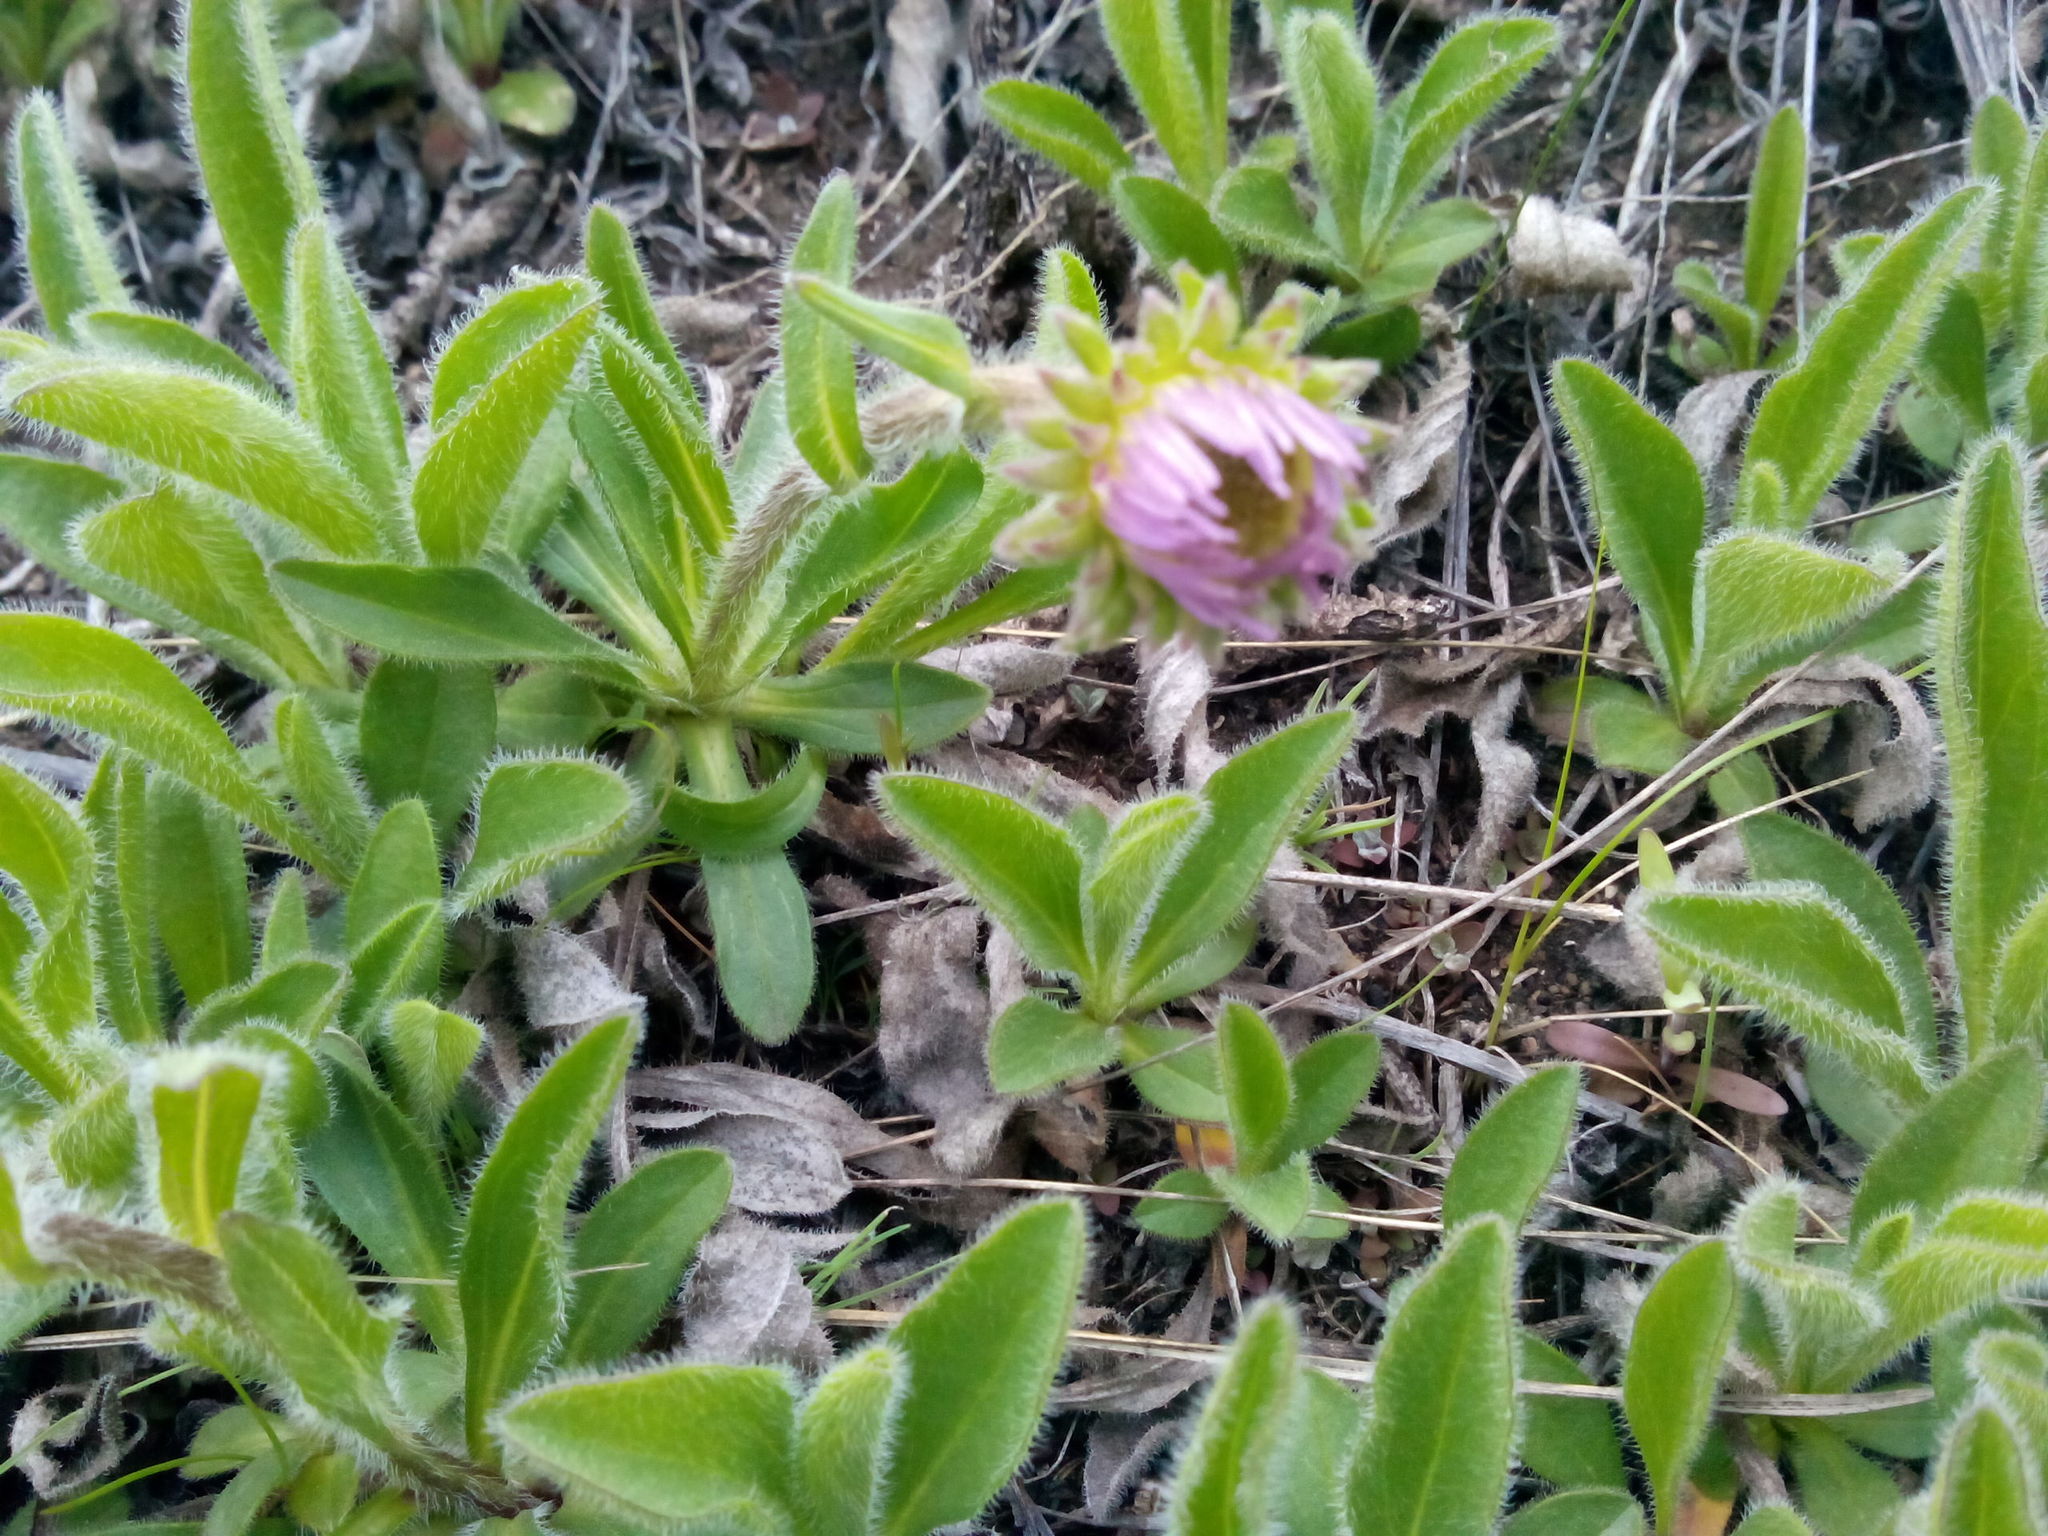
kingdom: Plantae
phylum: Tracheophyta
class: Magnoliopsida
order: Asterales
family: Asteraceae
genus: Tibetiodes
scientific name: Tibetiodes flaccida
